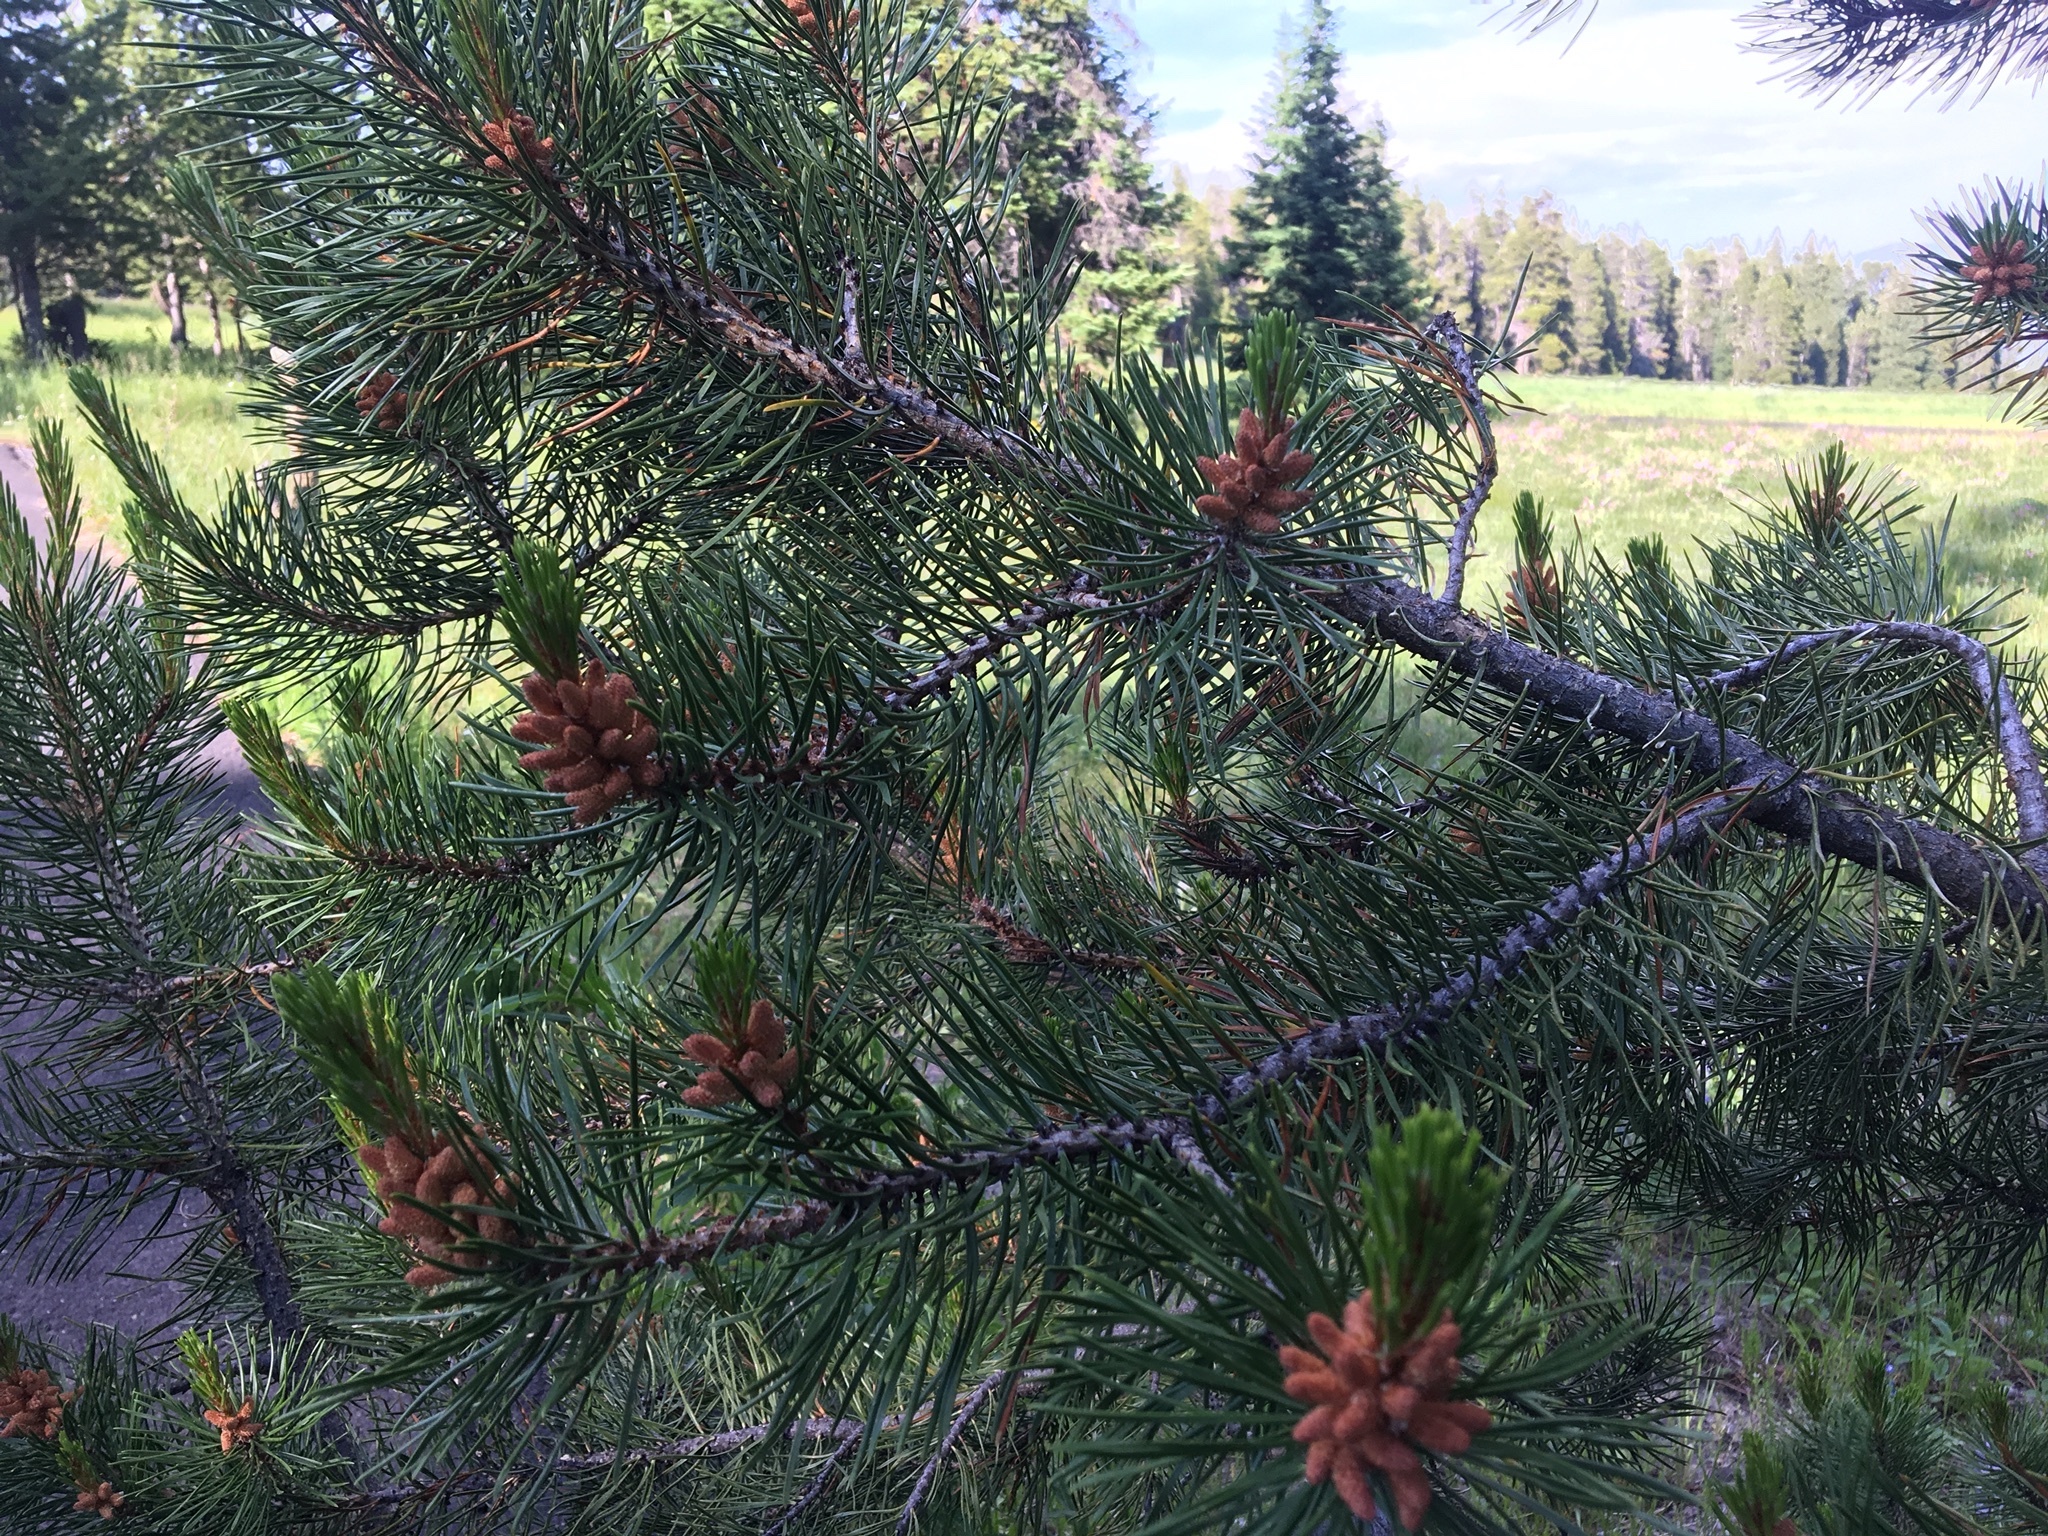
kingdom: Plantae
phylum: Tracheophyta
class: Pinopsida
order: Pinales
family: Pinaceae
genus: Pinus
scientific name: Pinus contorta
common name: Lodgepole pine
